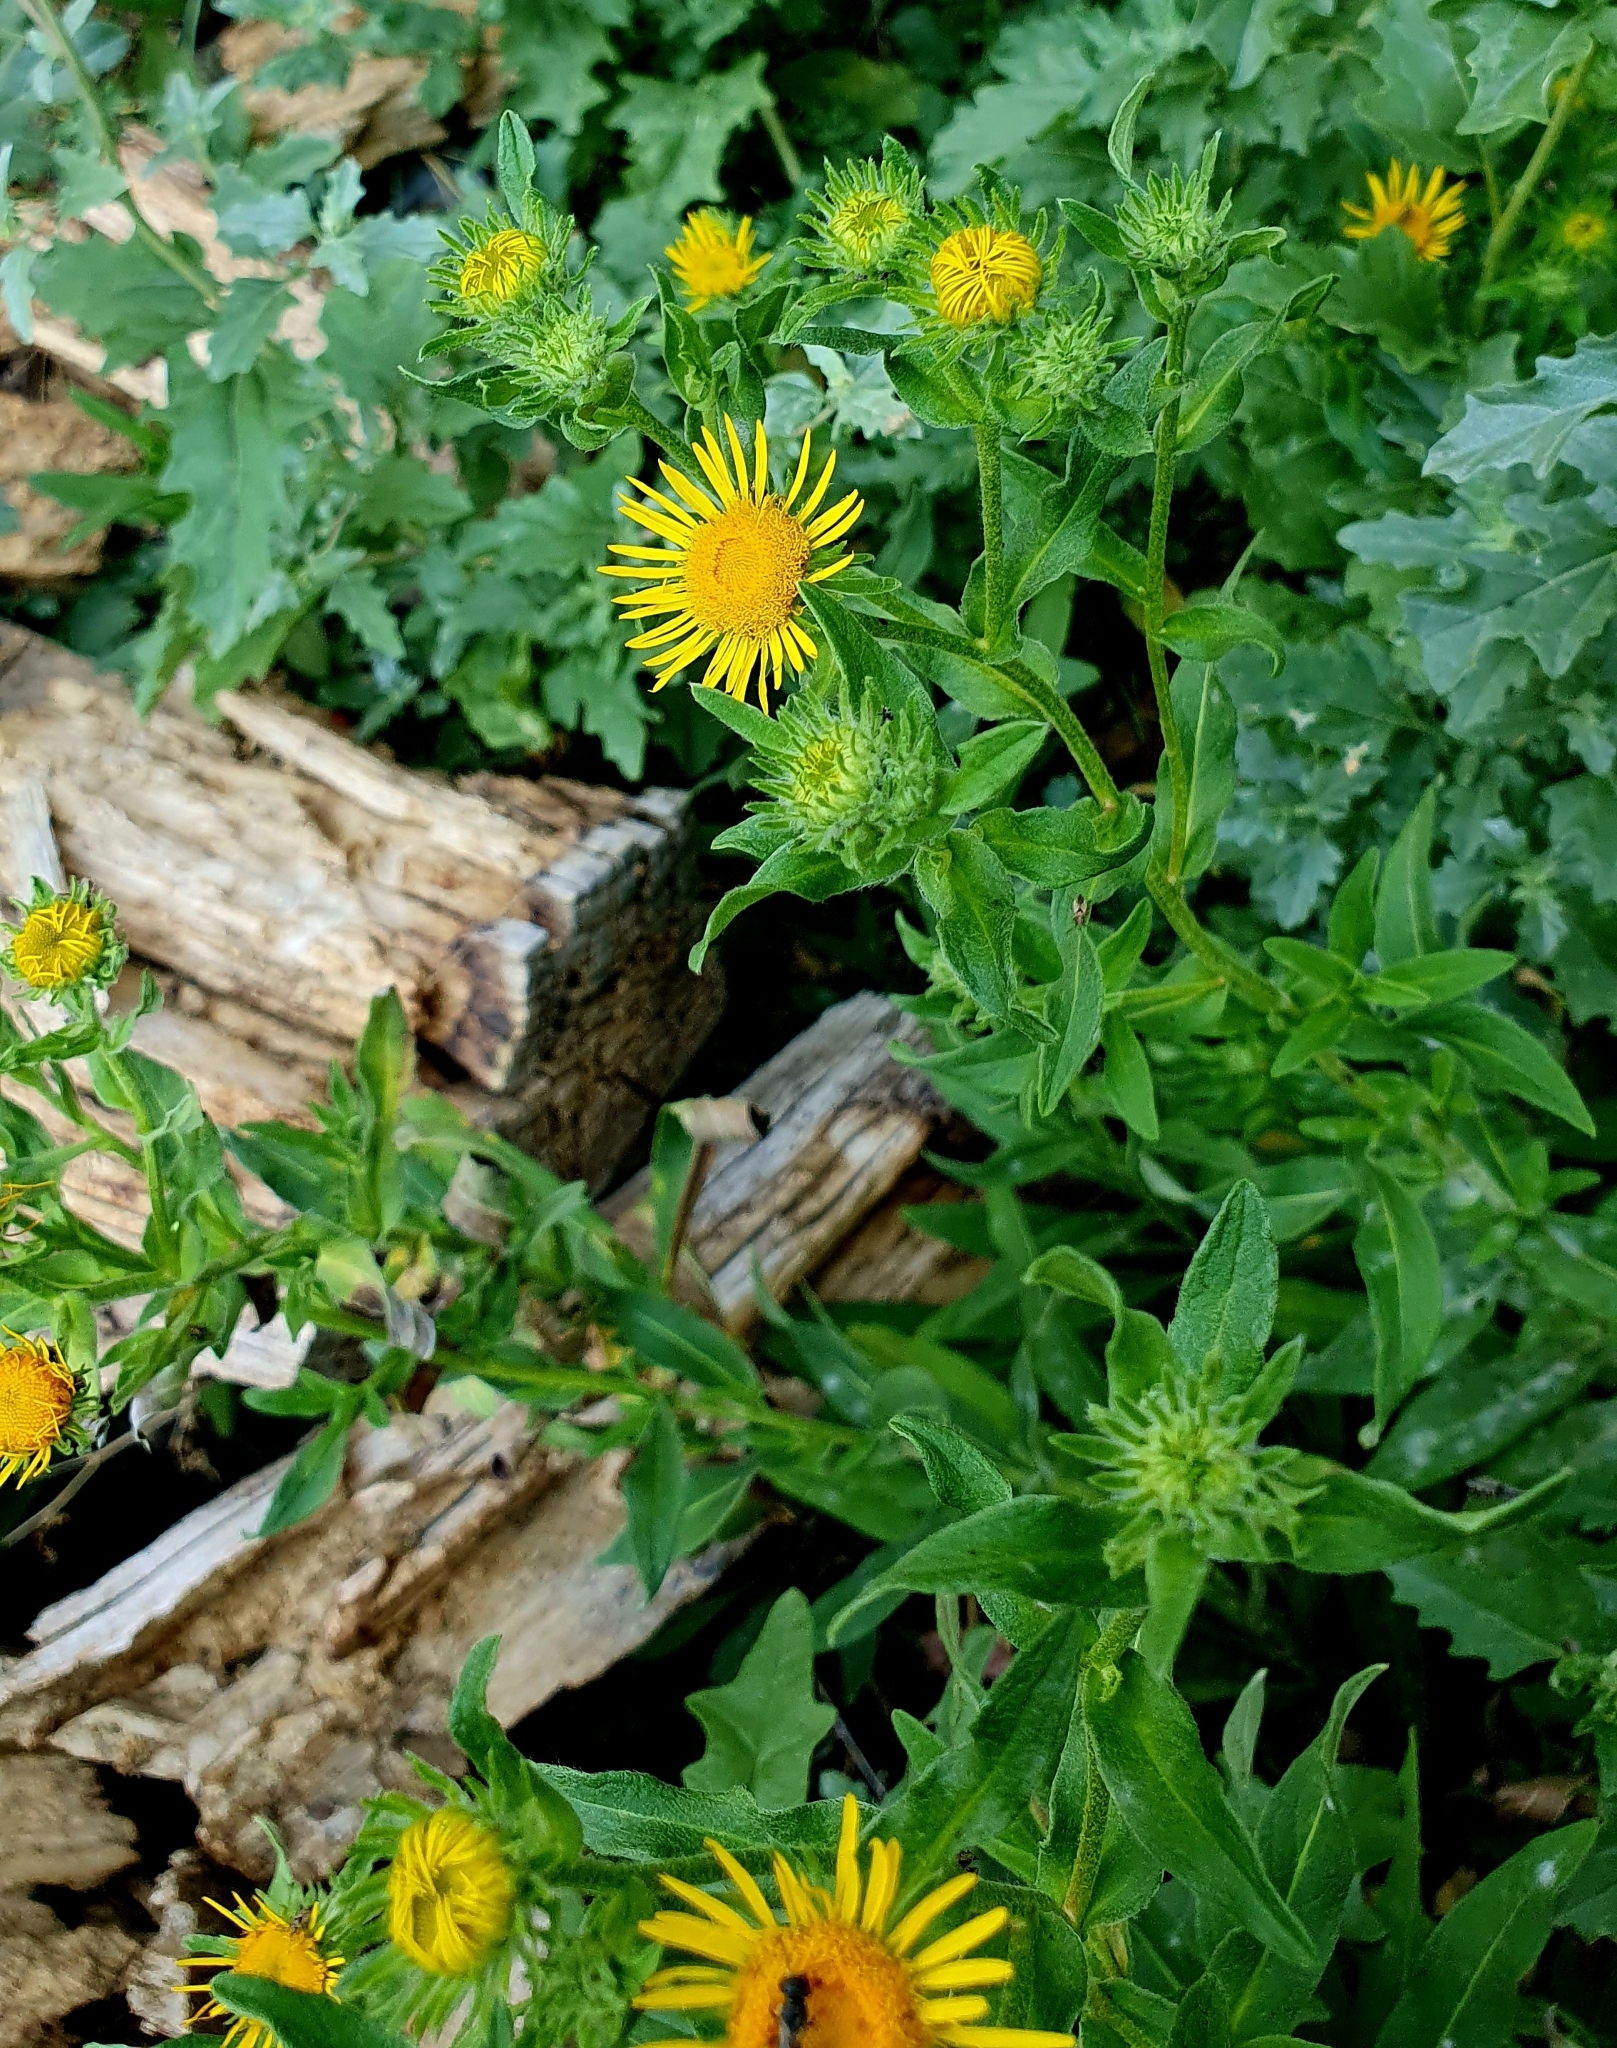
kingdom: Plantae
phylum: Tracheophyta
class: Magnoliopsida
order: Asterales
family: Asteraceae
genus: Pentanema
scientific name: Pentanema britannicum
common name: British elecampane
